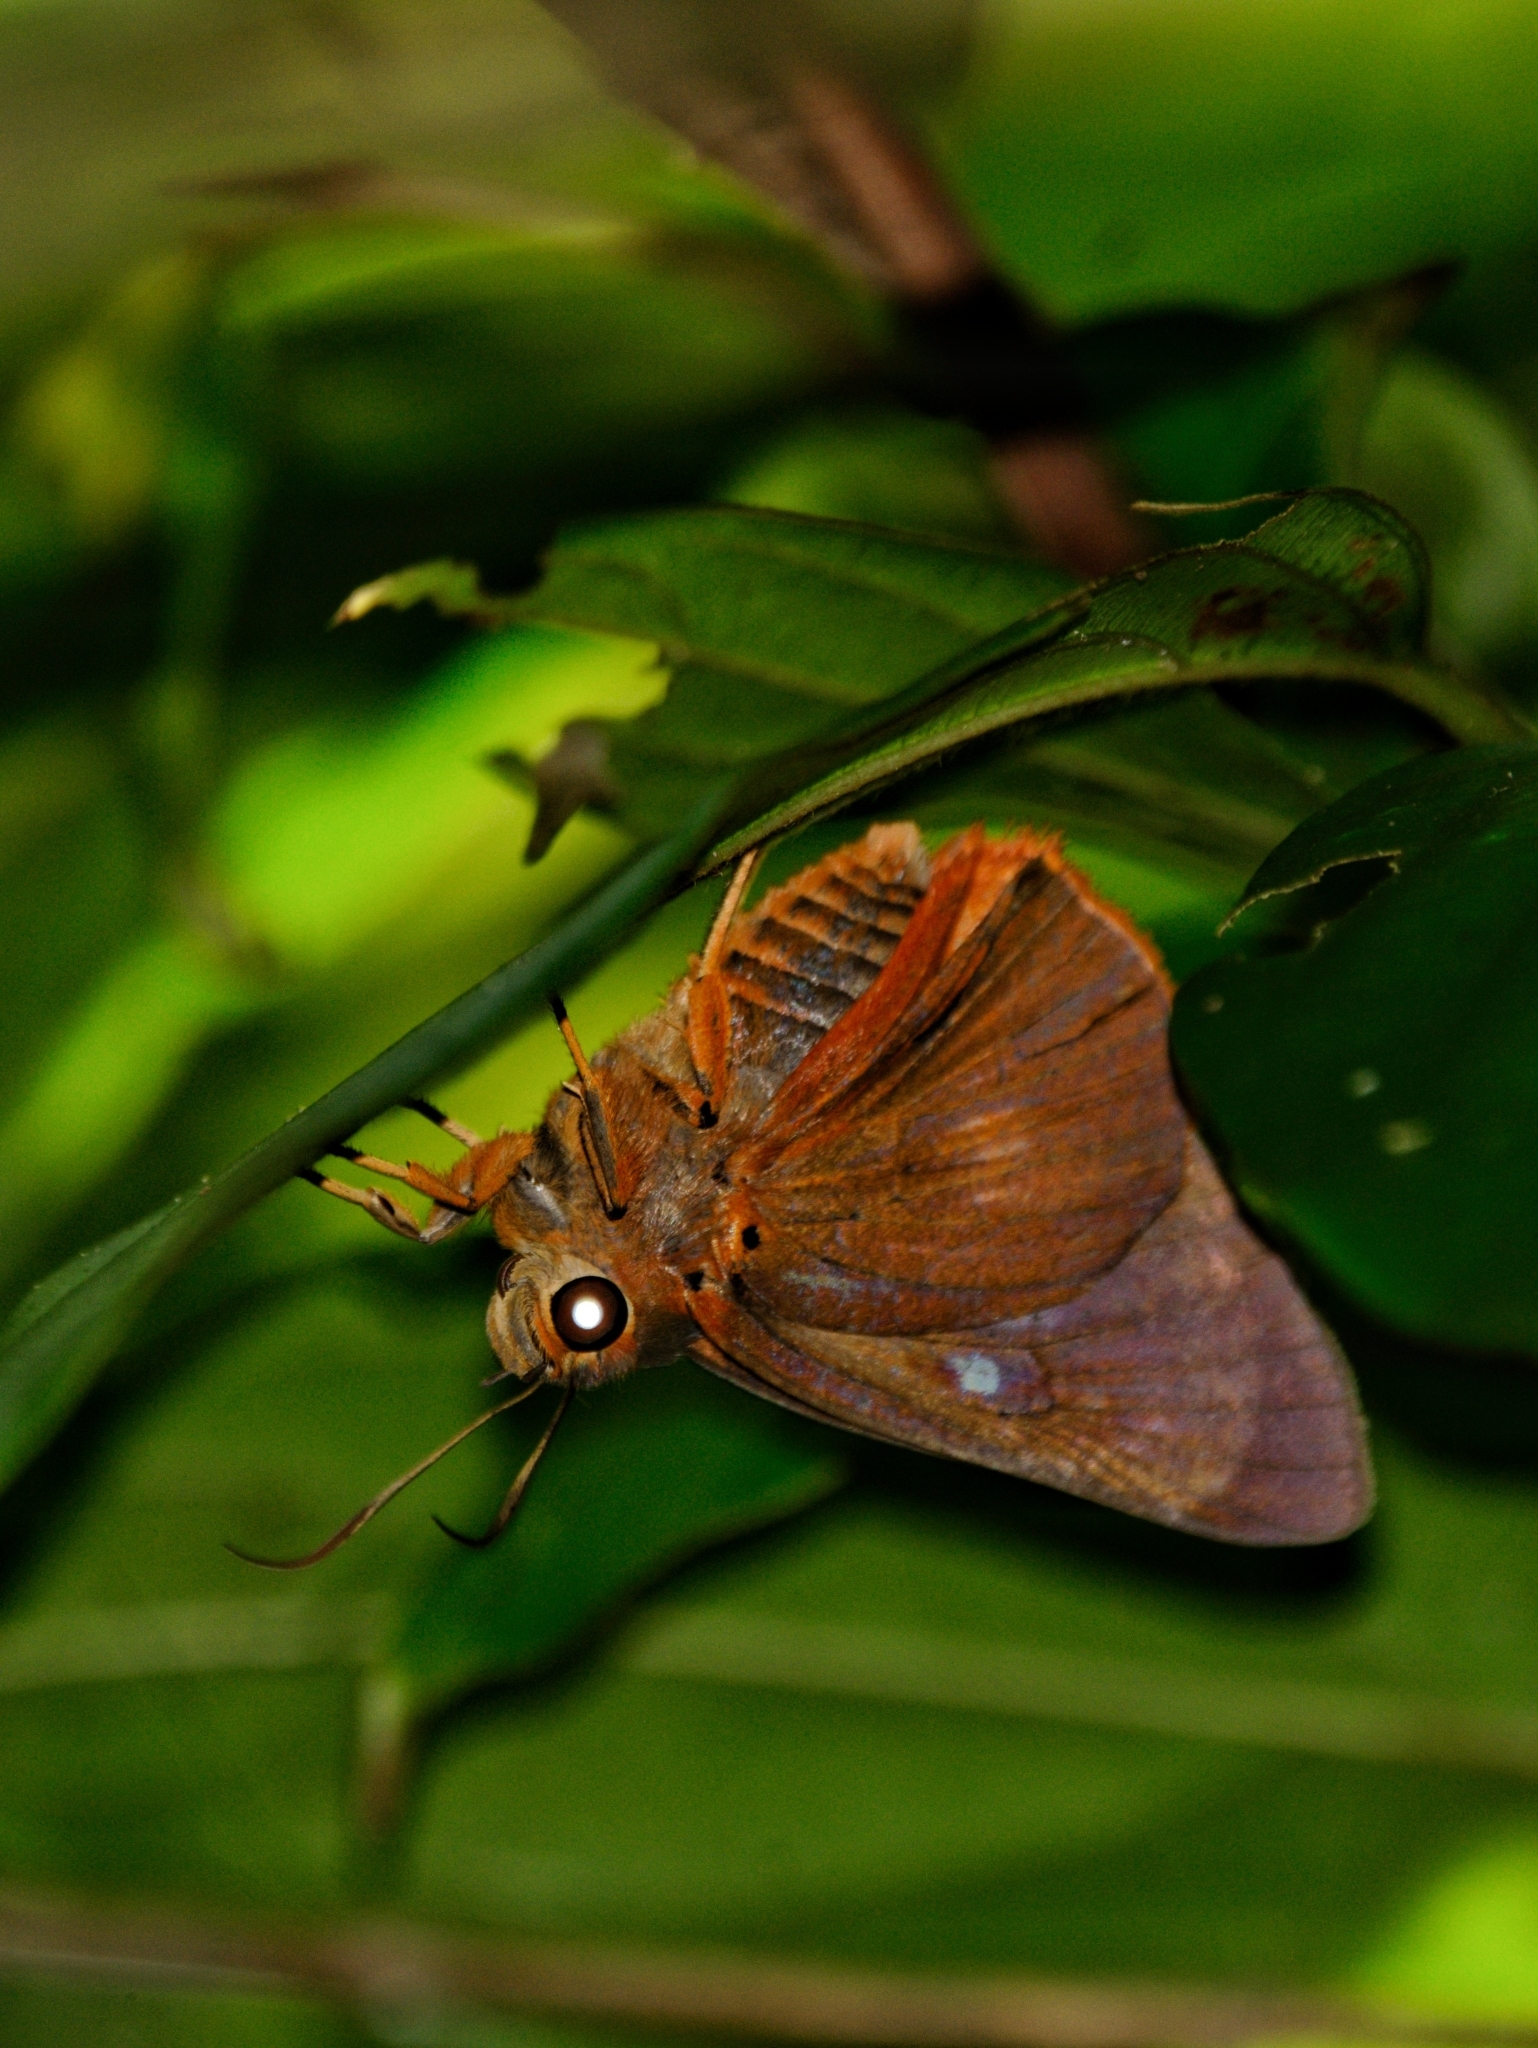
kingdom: Animalia
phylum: Arthropoda
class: Insecta
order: Lepidoptera
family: Hesperiidae
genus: Bibasis
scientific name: Bibasis harisa
